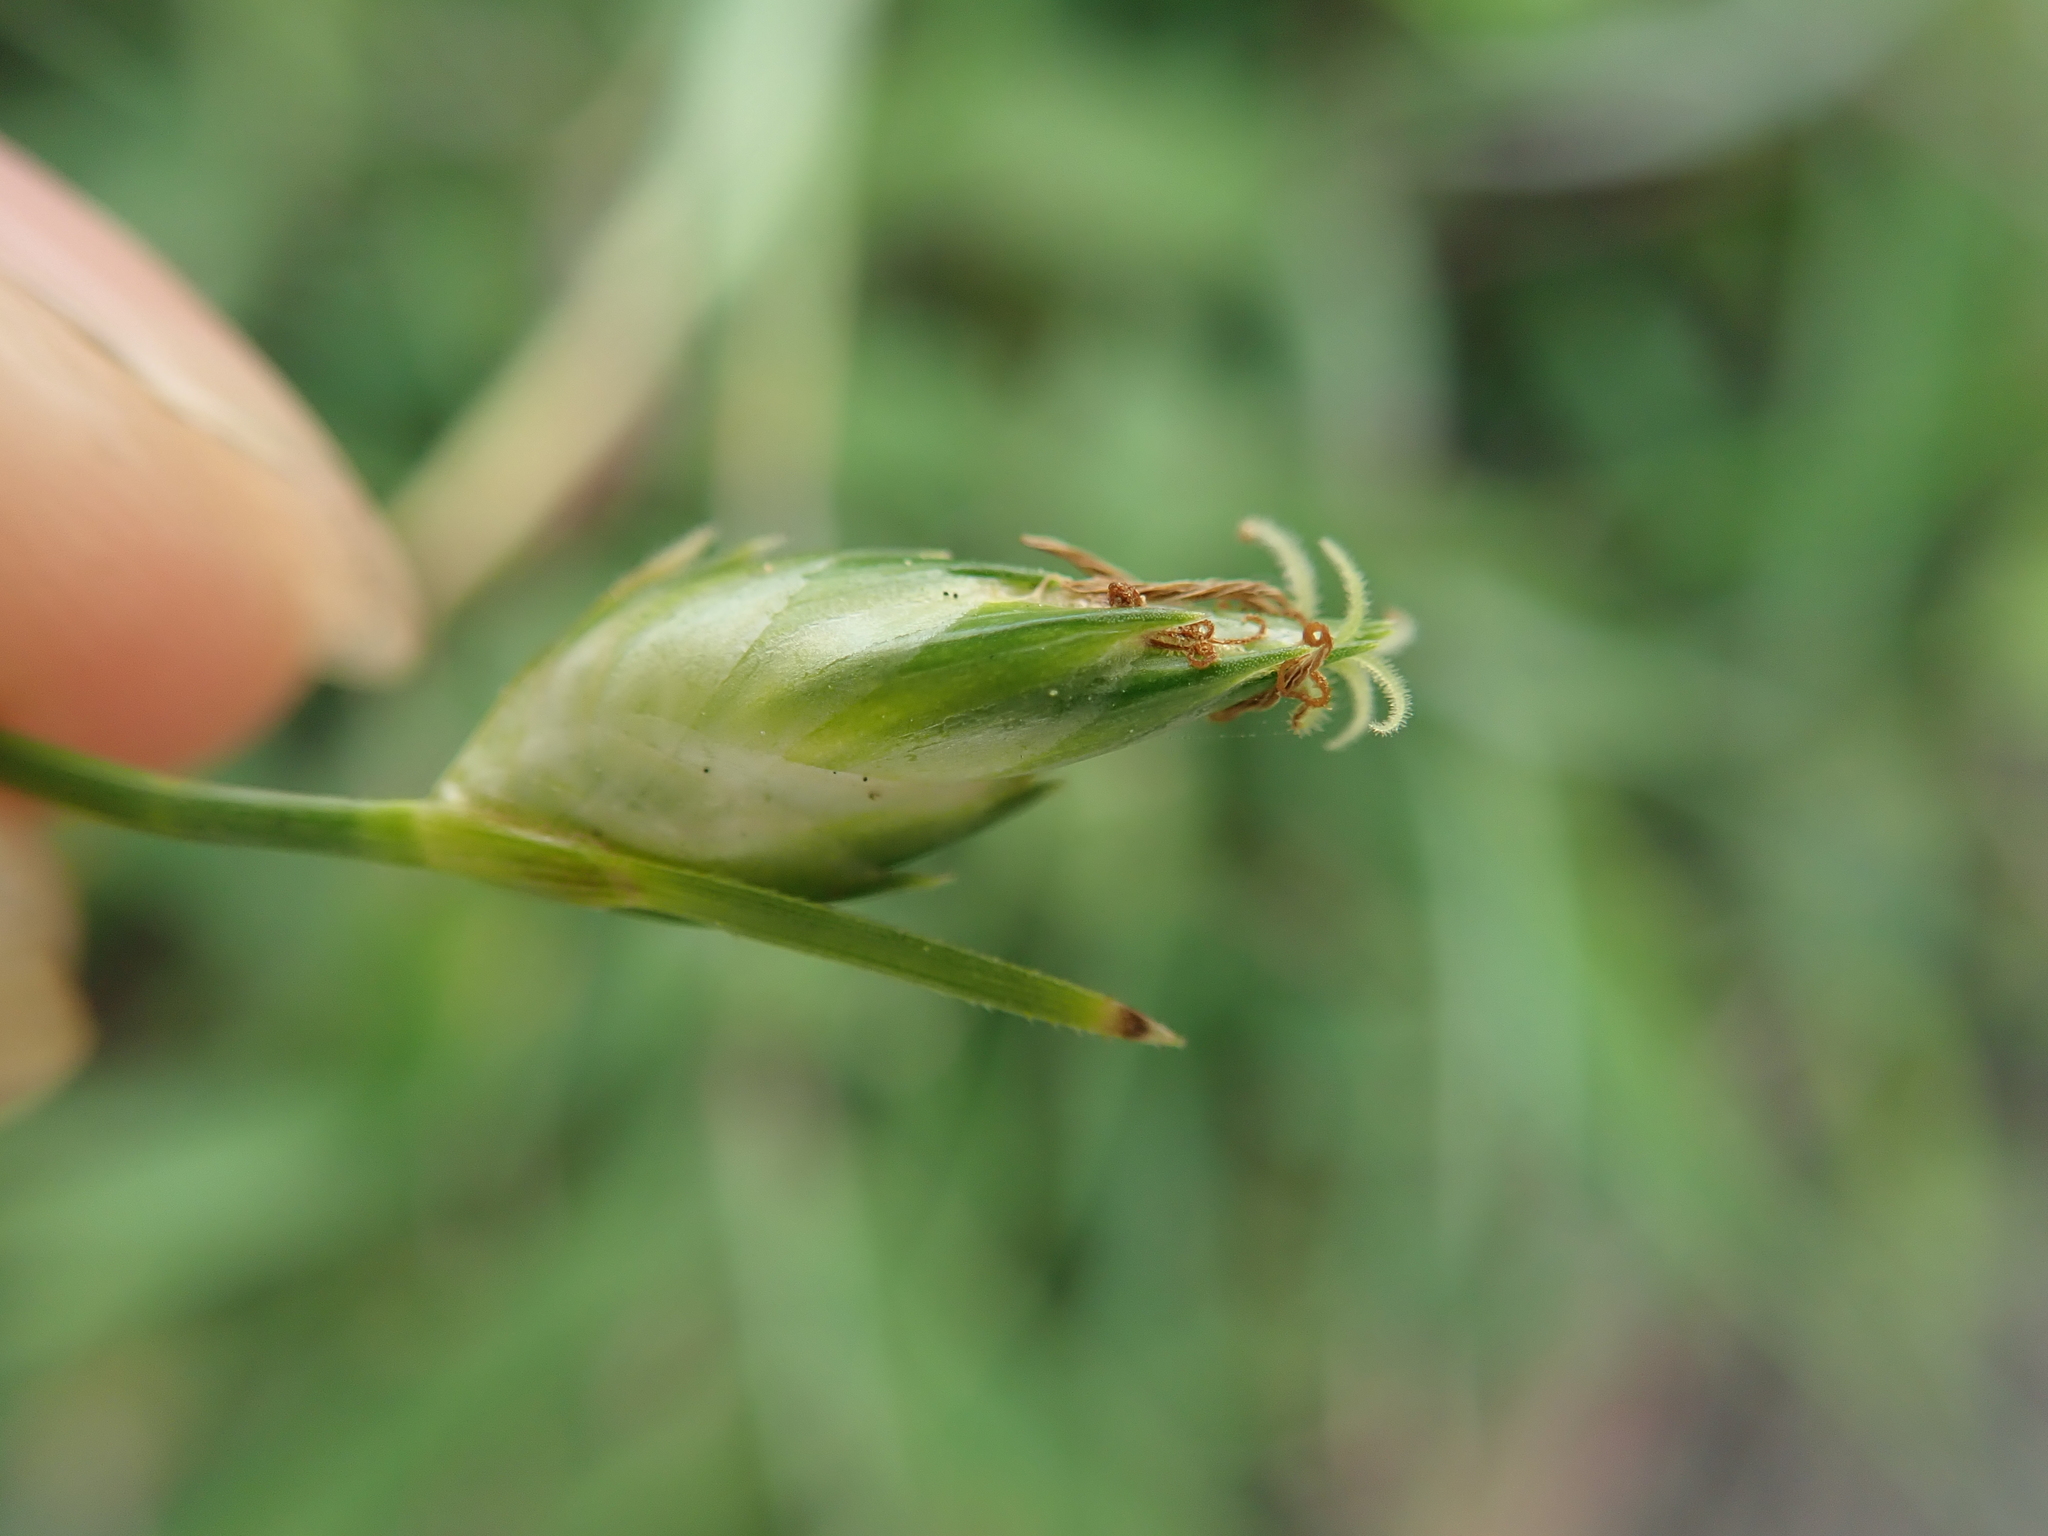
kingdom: Plantae
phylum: Tracheophyta
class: Liliopsida
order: Poales
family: Cyperaceae
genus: Abildgaardia
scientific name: Abildgaardia ovata
